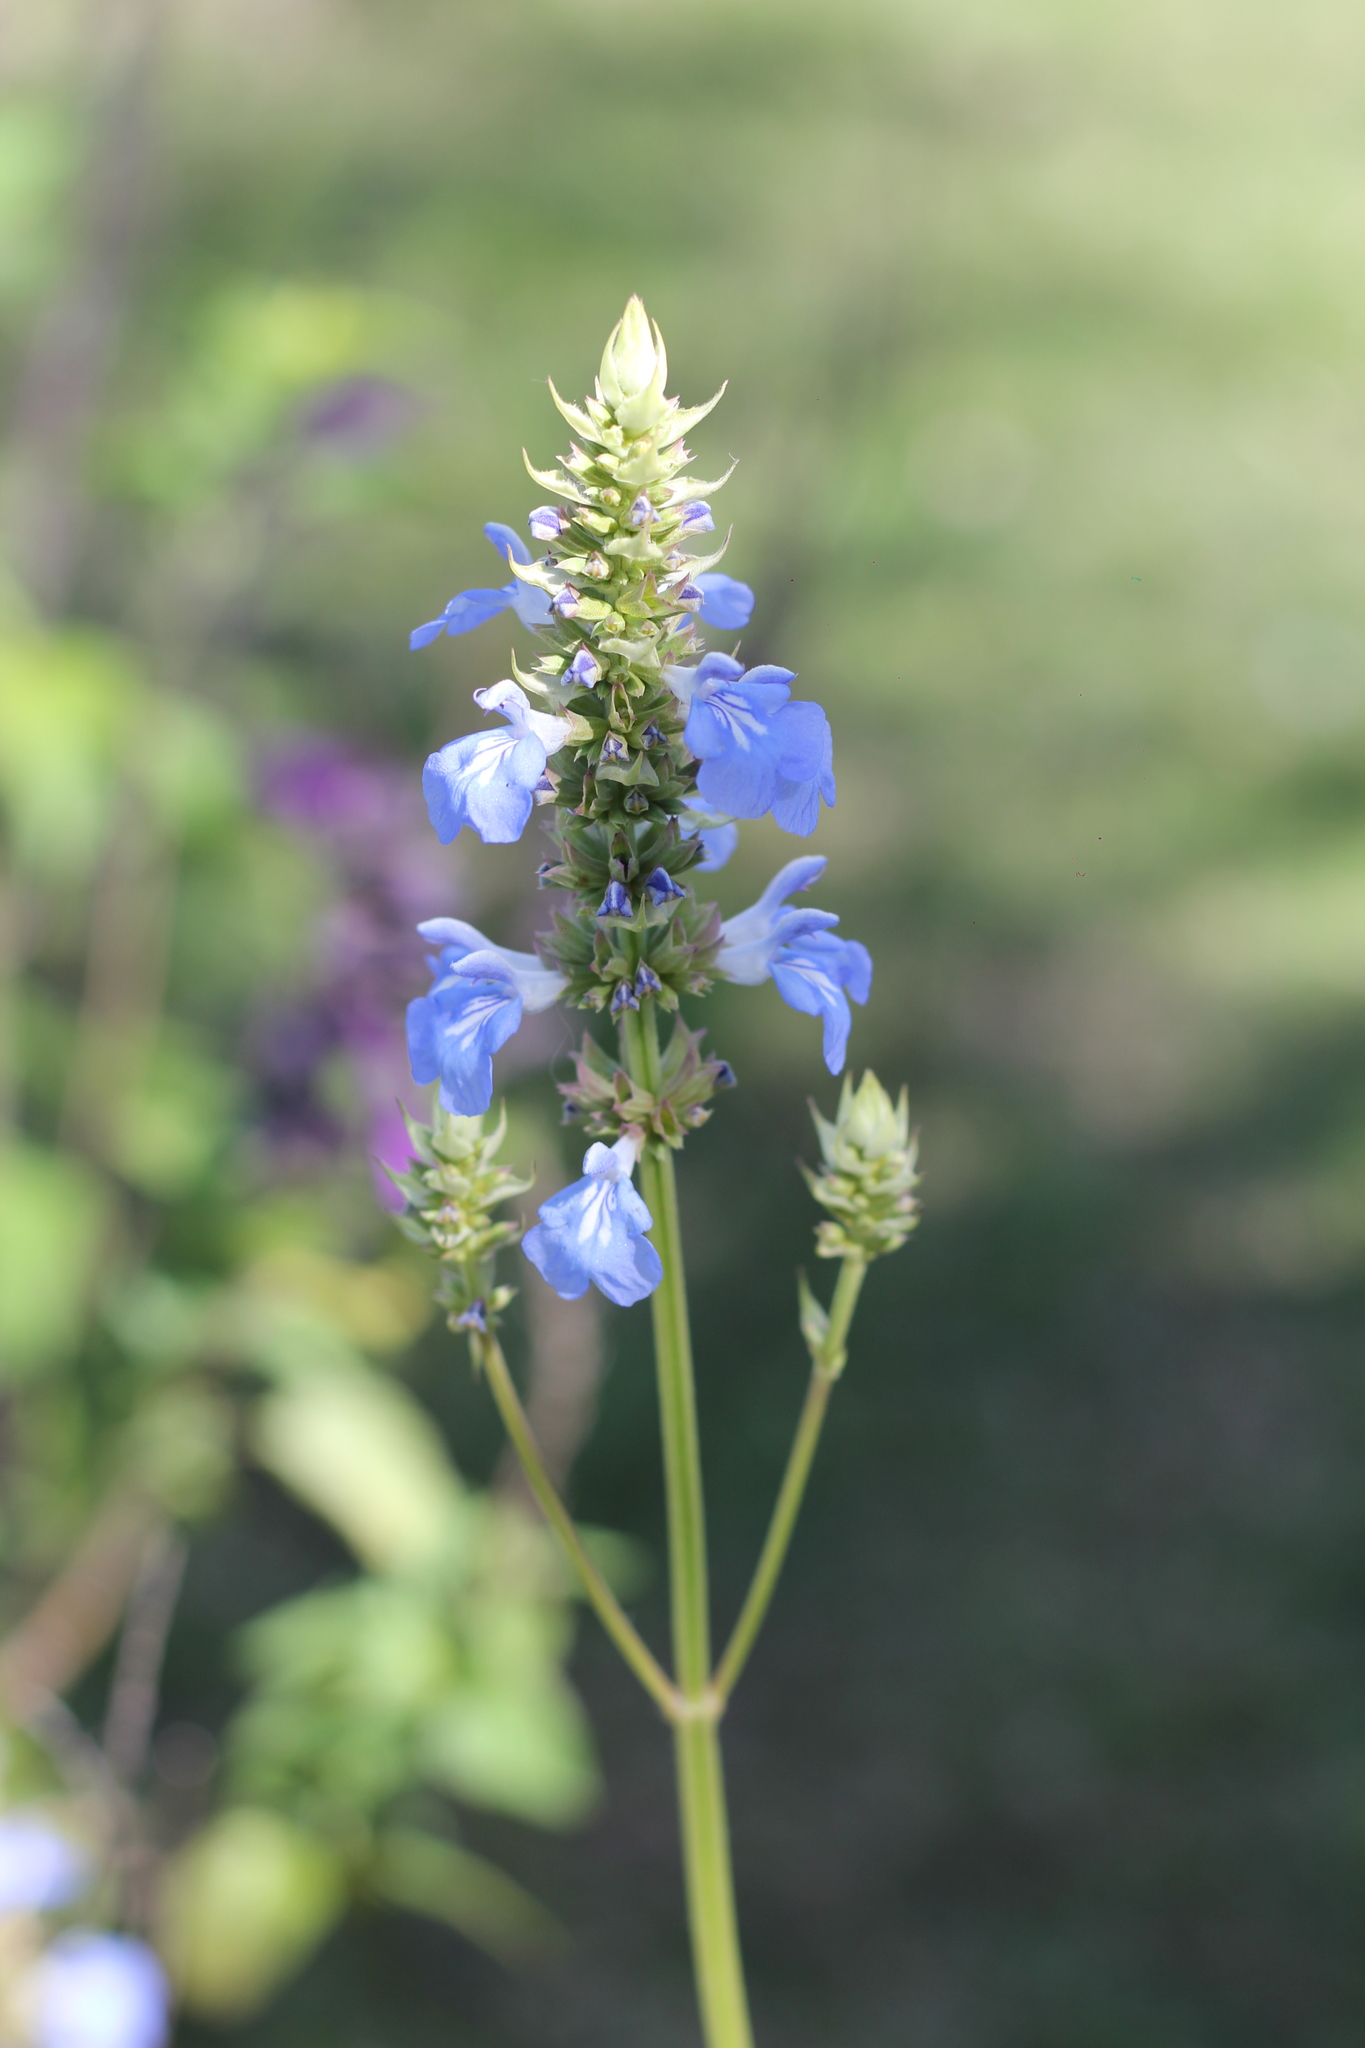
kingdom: Plantae
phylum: Tracheophyta
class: Magnoliopsida
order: Lamiales
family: Lamiaceae
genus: Salvia
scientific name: Salvia uliginosa
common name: Bog sage
